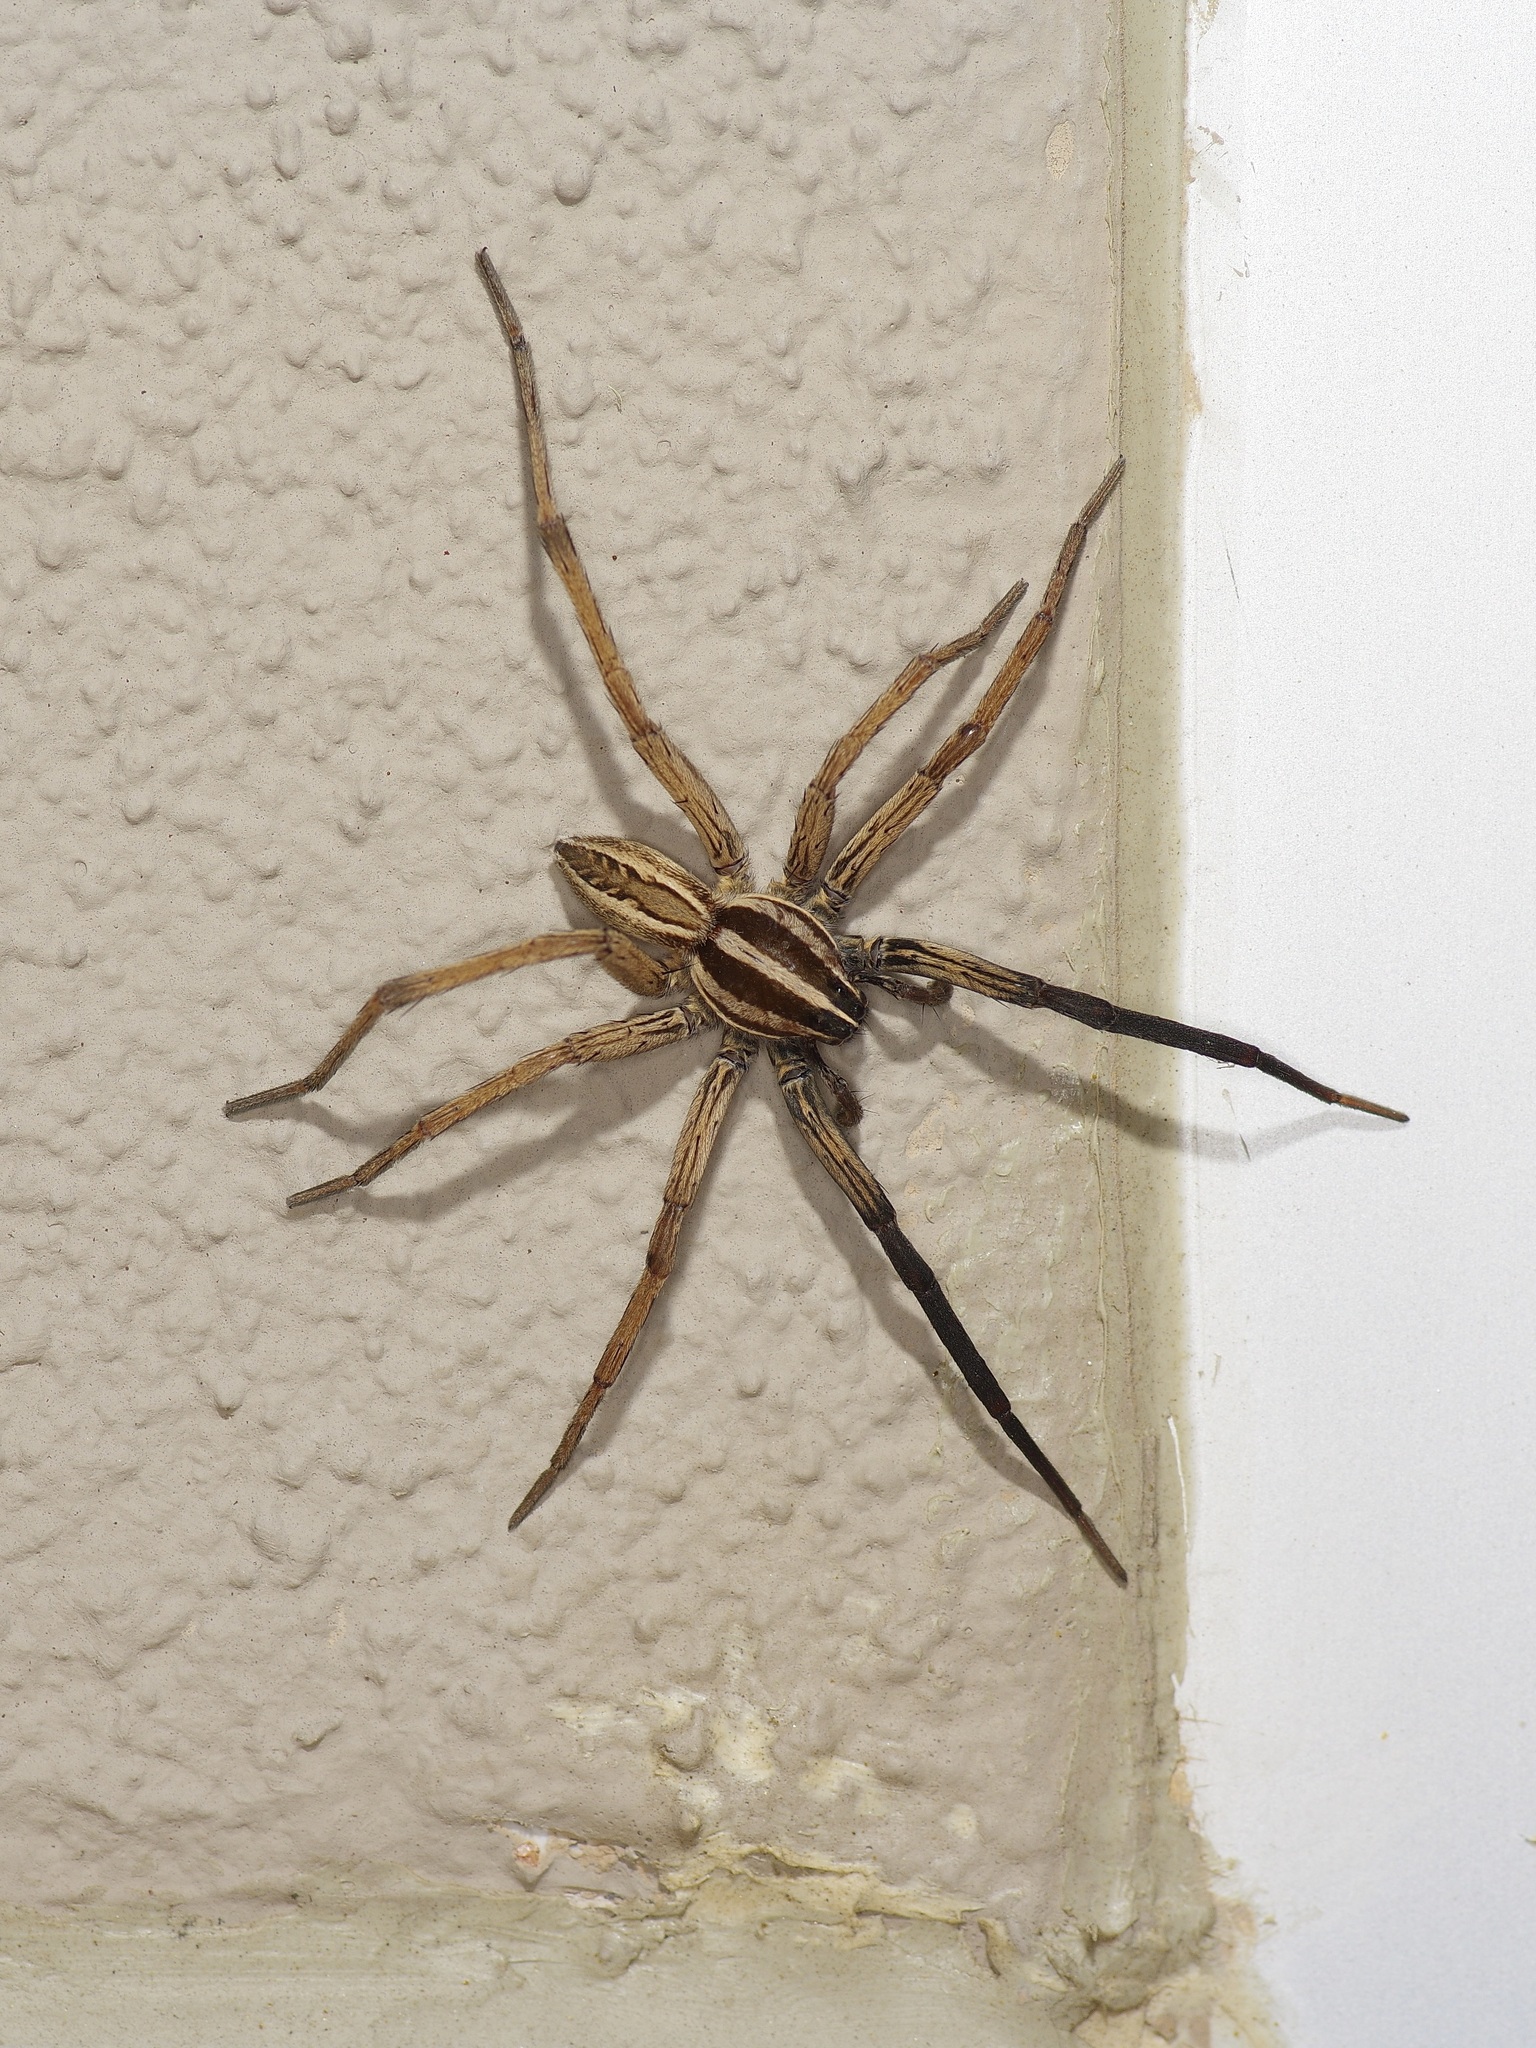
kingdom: Animalia
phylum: Arthropoda
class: Arachnida
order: Araneae
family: Lycosidae
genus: Rabidosa
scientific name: Rabidosa rabida
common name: Rabid wolf spider
